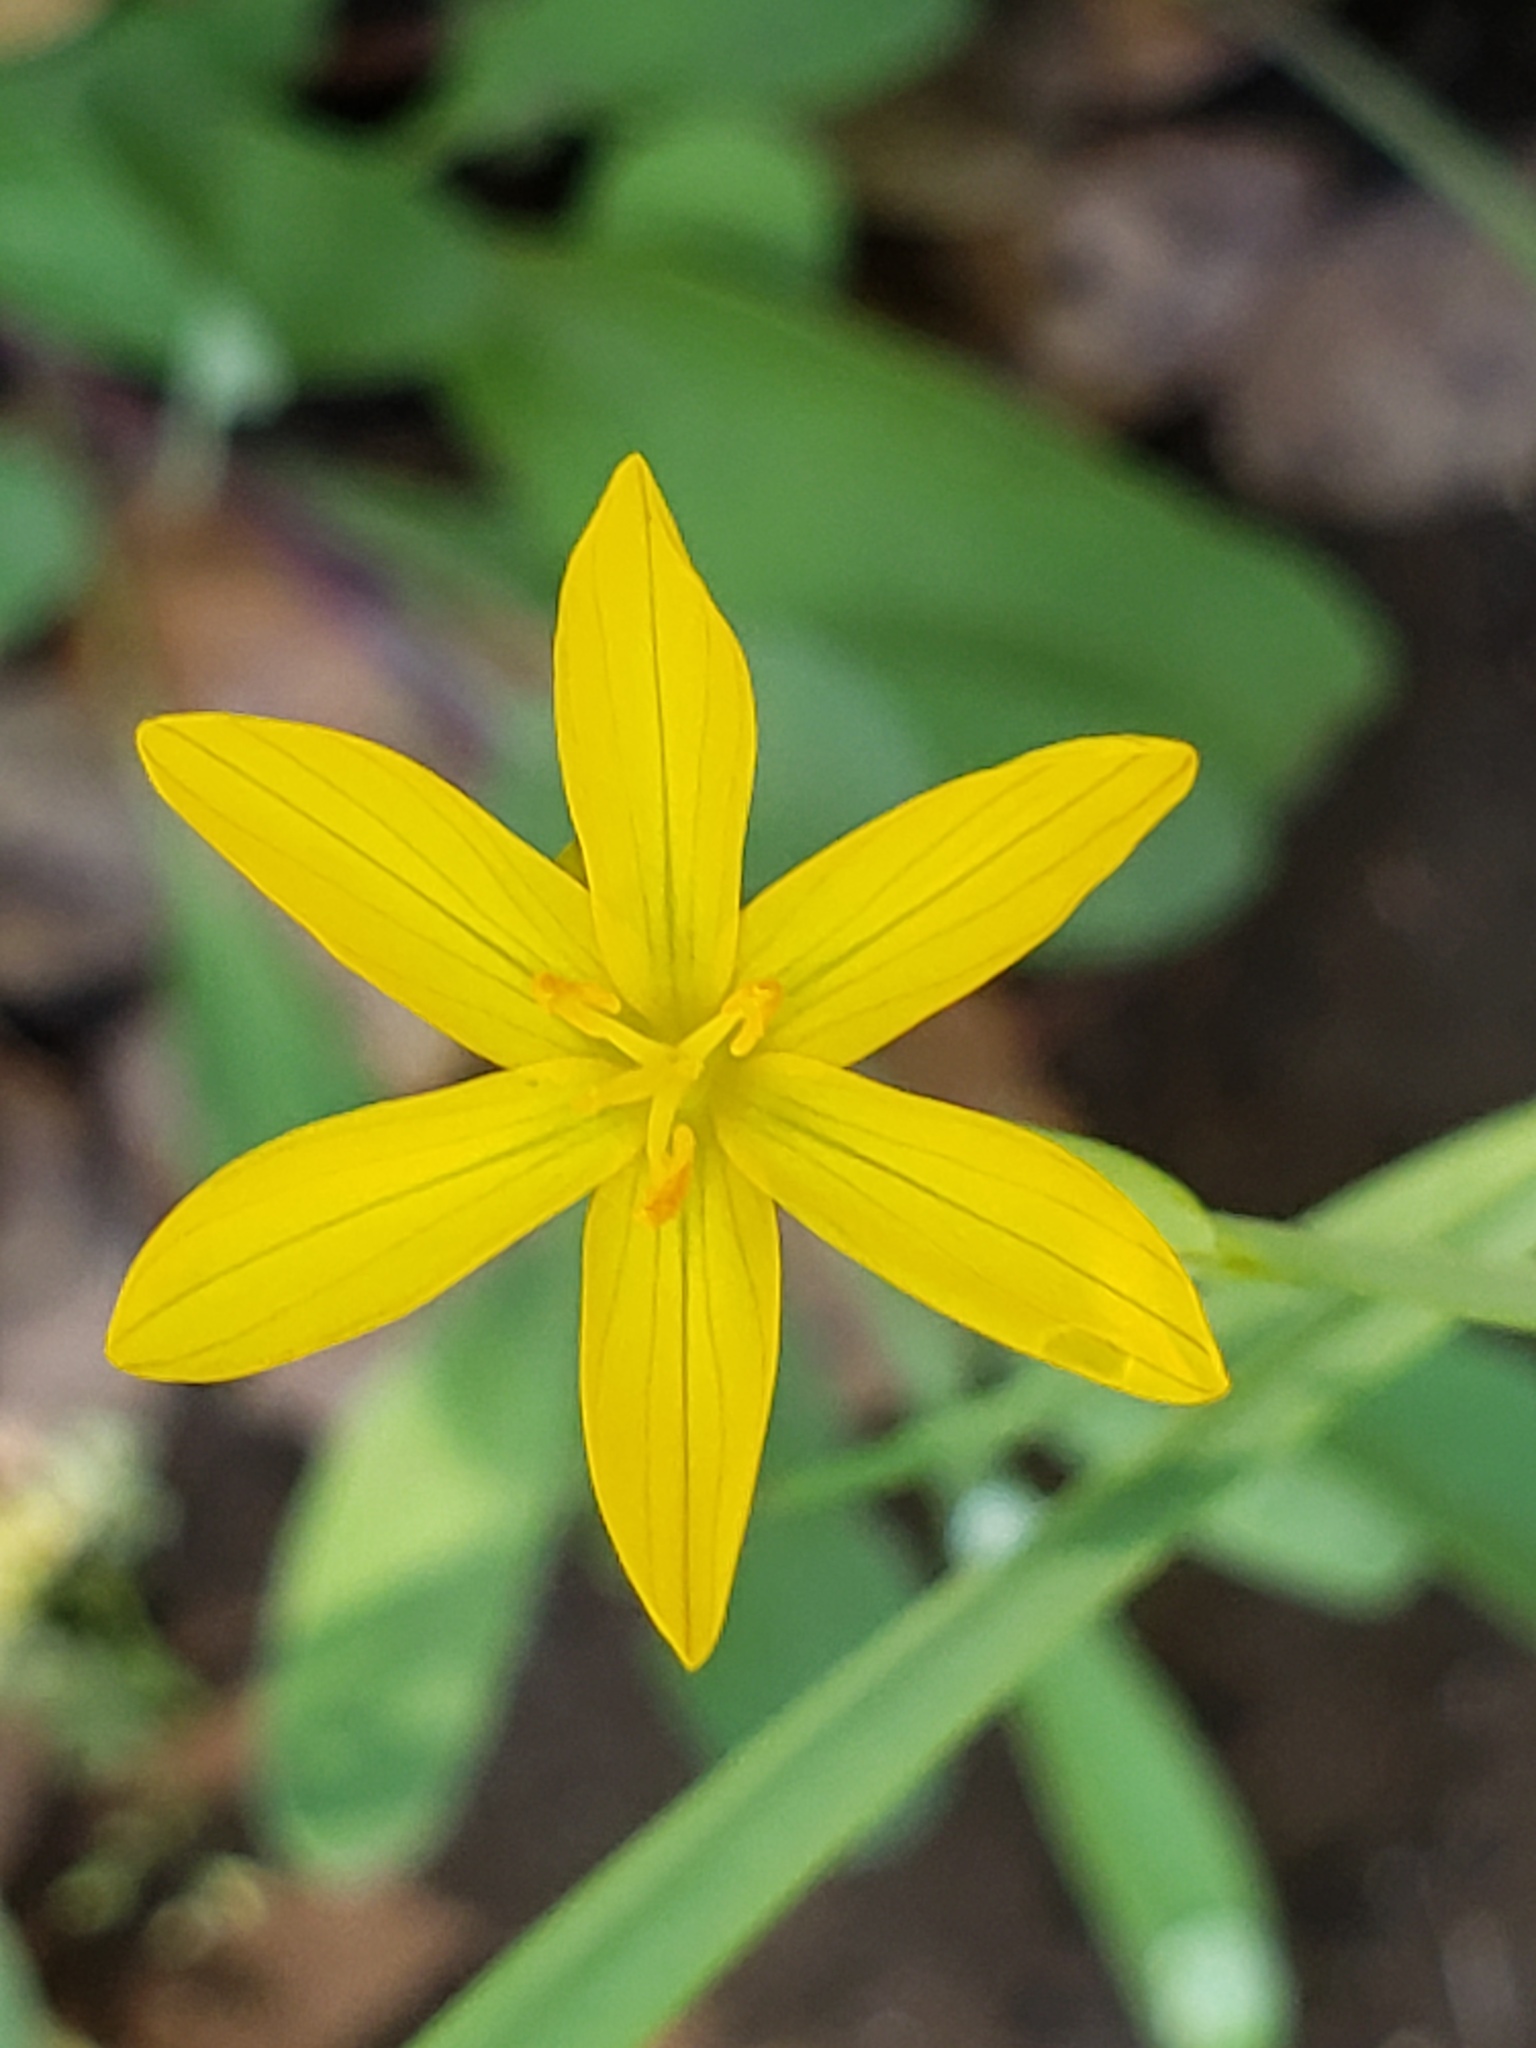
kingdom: Plantae
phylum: Tracheophyta
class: Liliopsida
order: Asparagales
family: Iridaceae
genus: Sisyrinchium
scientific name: Sisyrinchium californicum
